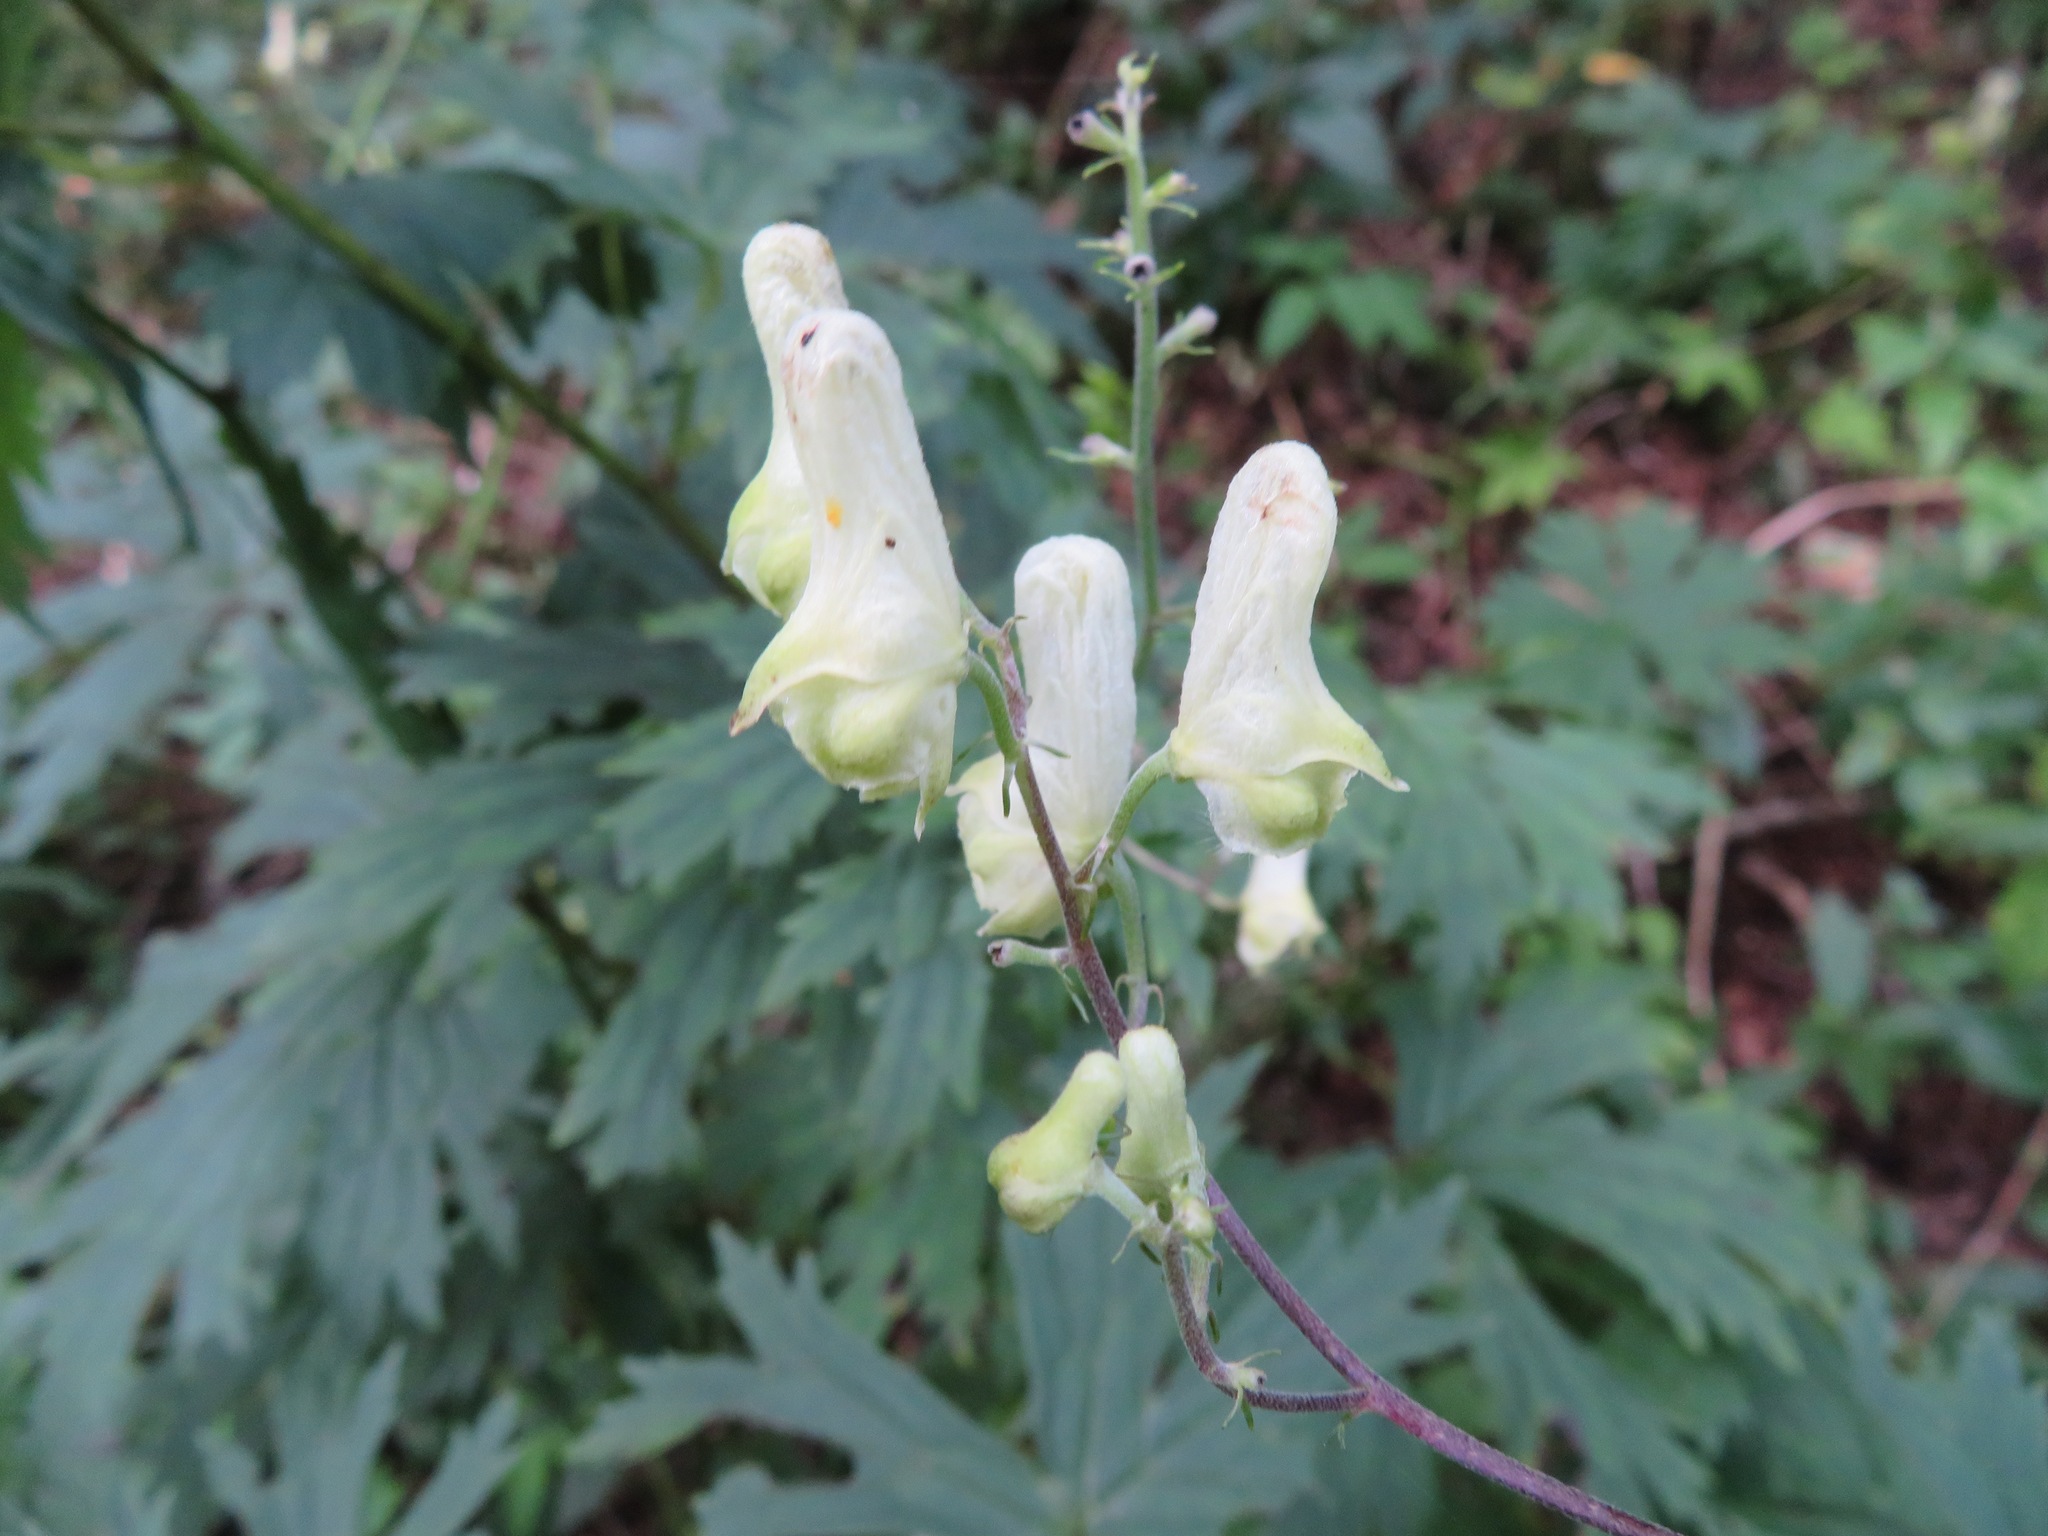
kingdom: Plantae
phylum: Tracheophyta
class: Magnoliopsida
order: Ranunculales
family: Ranunculaceae
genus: Aconitum
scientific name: Aconitum lycoctonum
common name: Wolf's-bane
